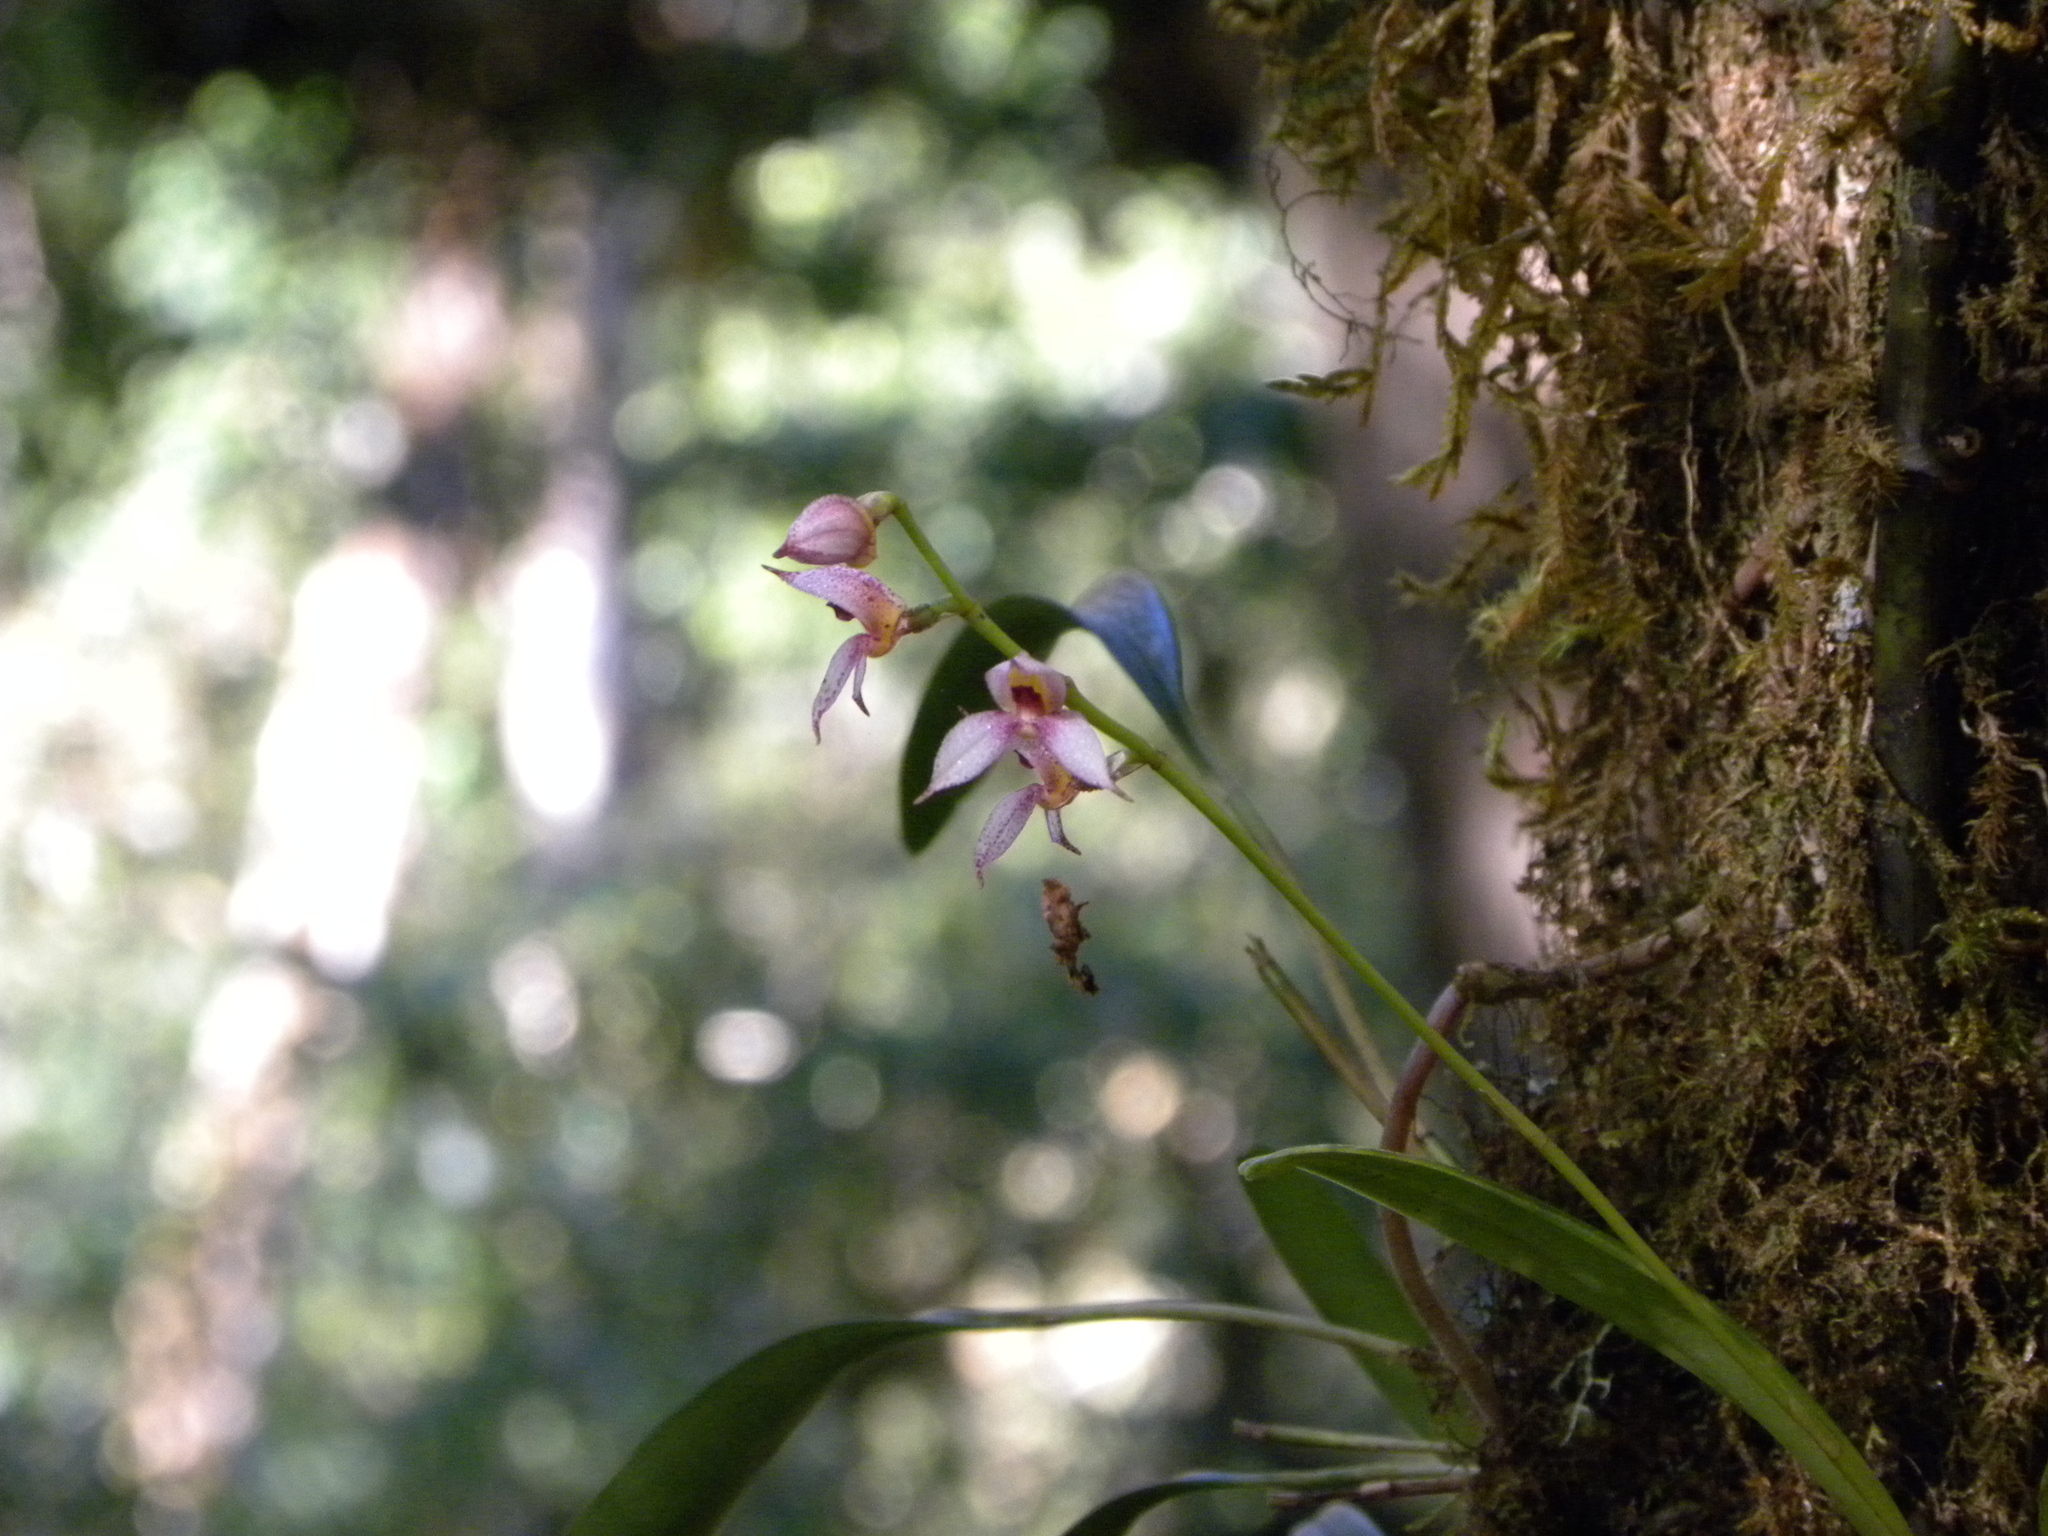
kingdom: Plantae
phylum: Tracheophyta
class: Liliopsida
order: Asparagales
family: Orchidaceae
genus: Masdevallia
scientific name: Masdevallia rafaeliana
